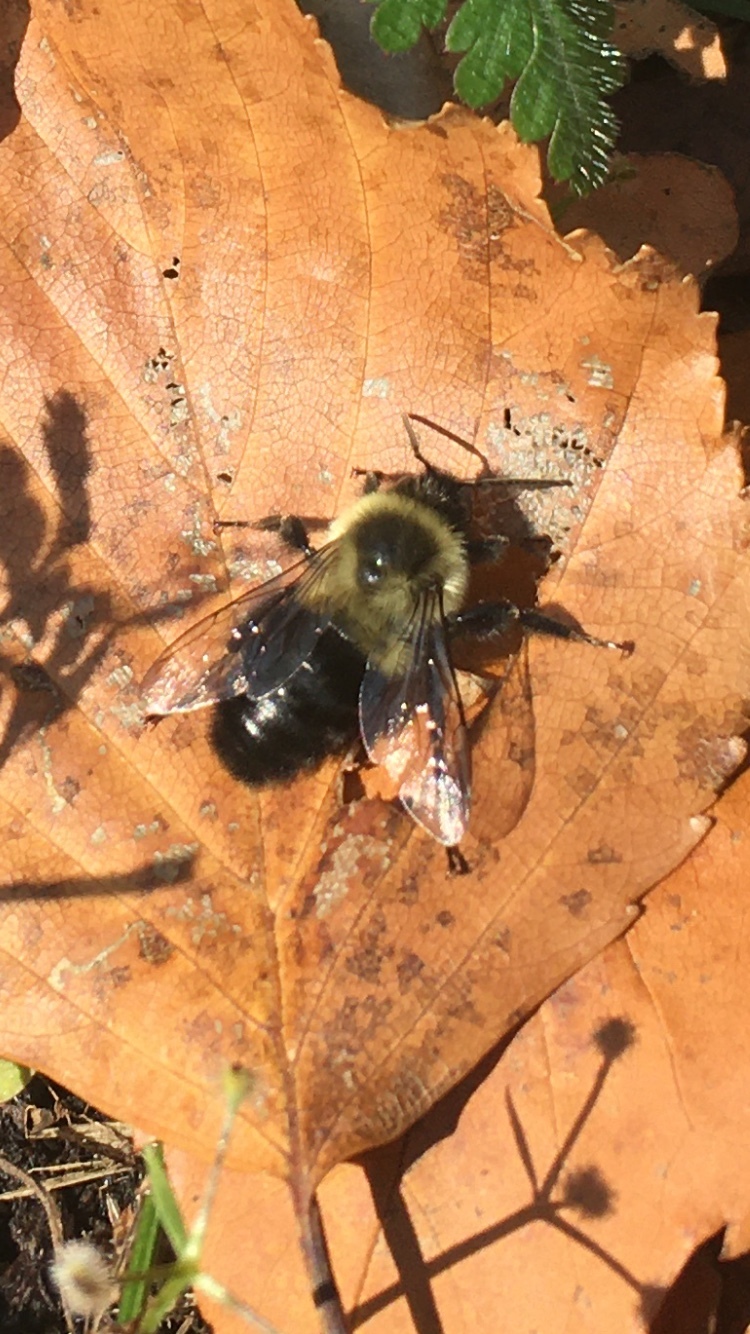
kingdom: Animalia
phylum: Arthropoda
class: Insecta
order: Hymenoptera
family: Apidae
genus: Bombus
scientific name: Bombus impatiens
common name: Common eastern bumble bee
